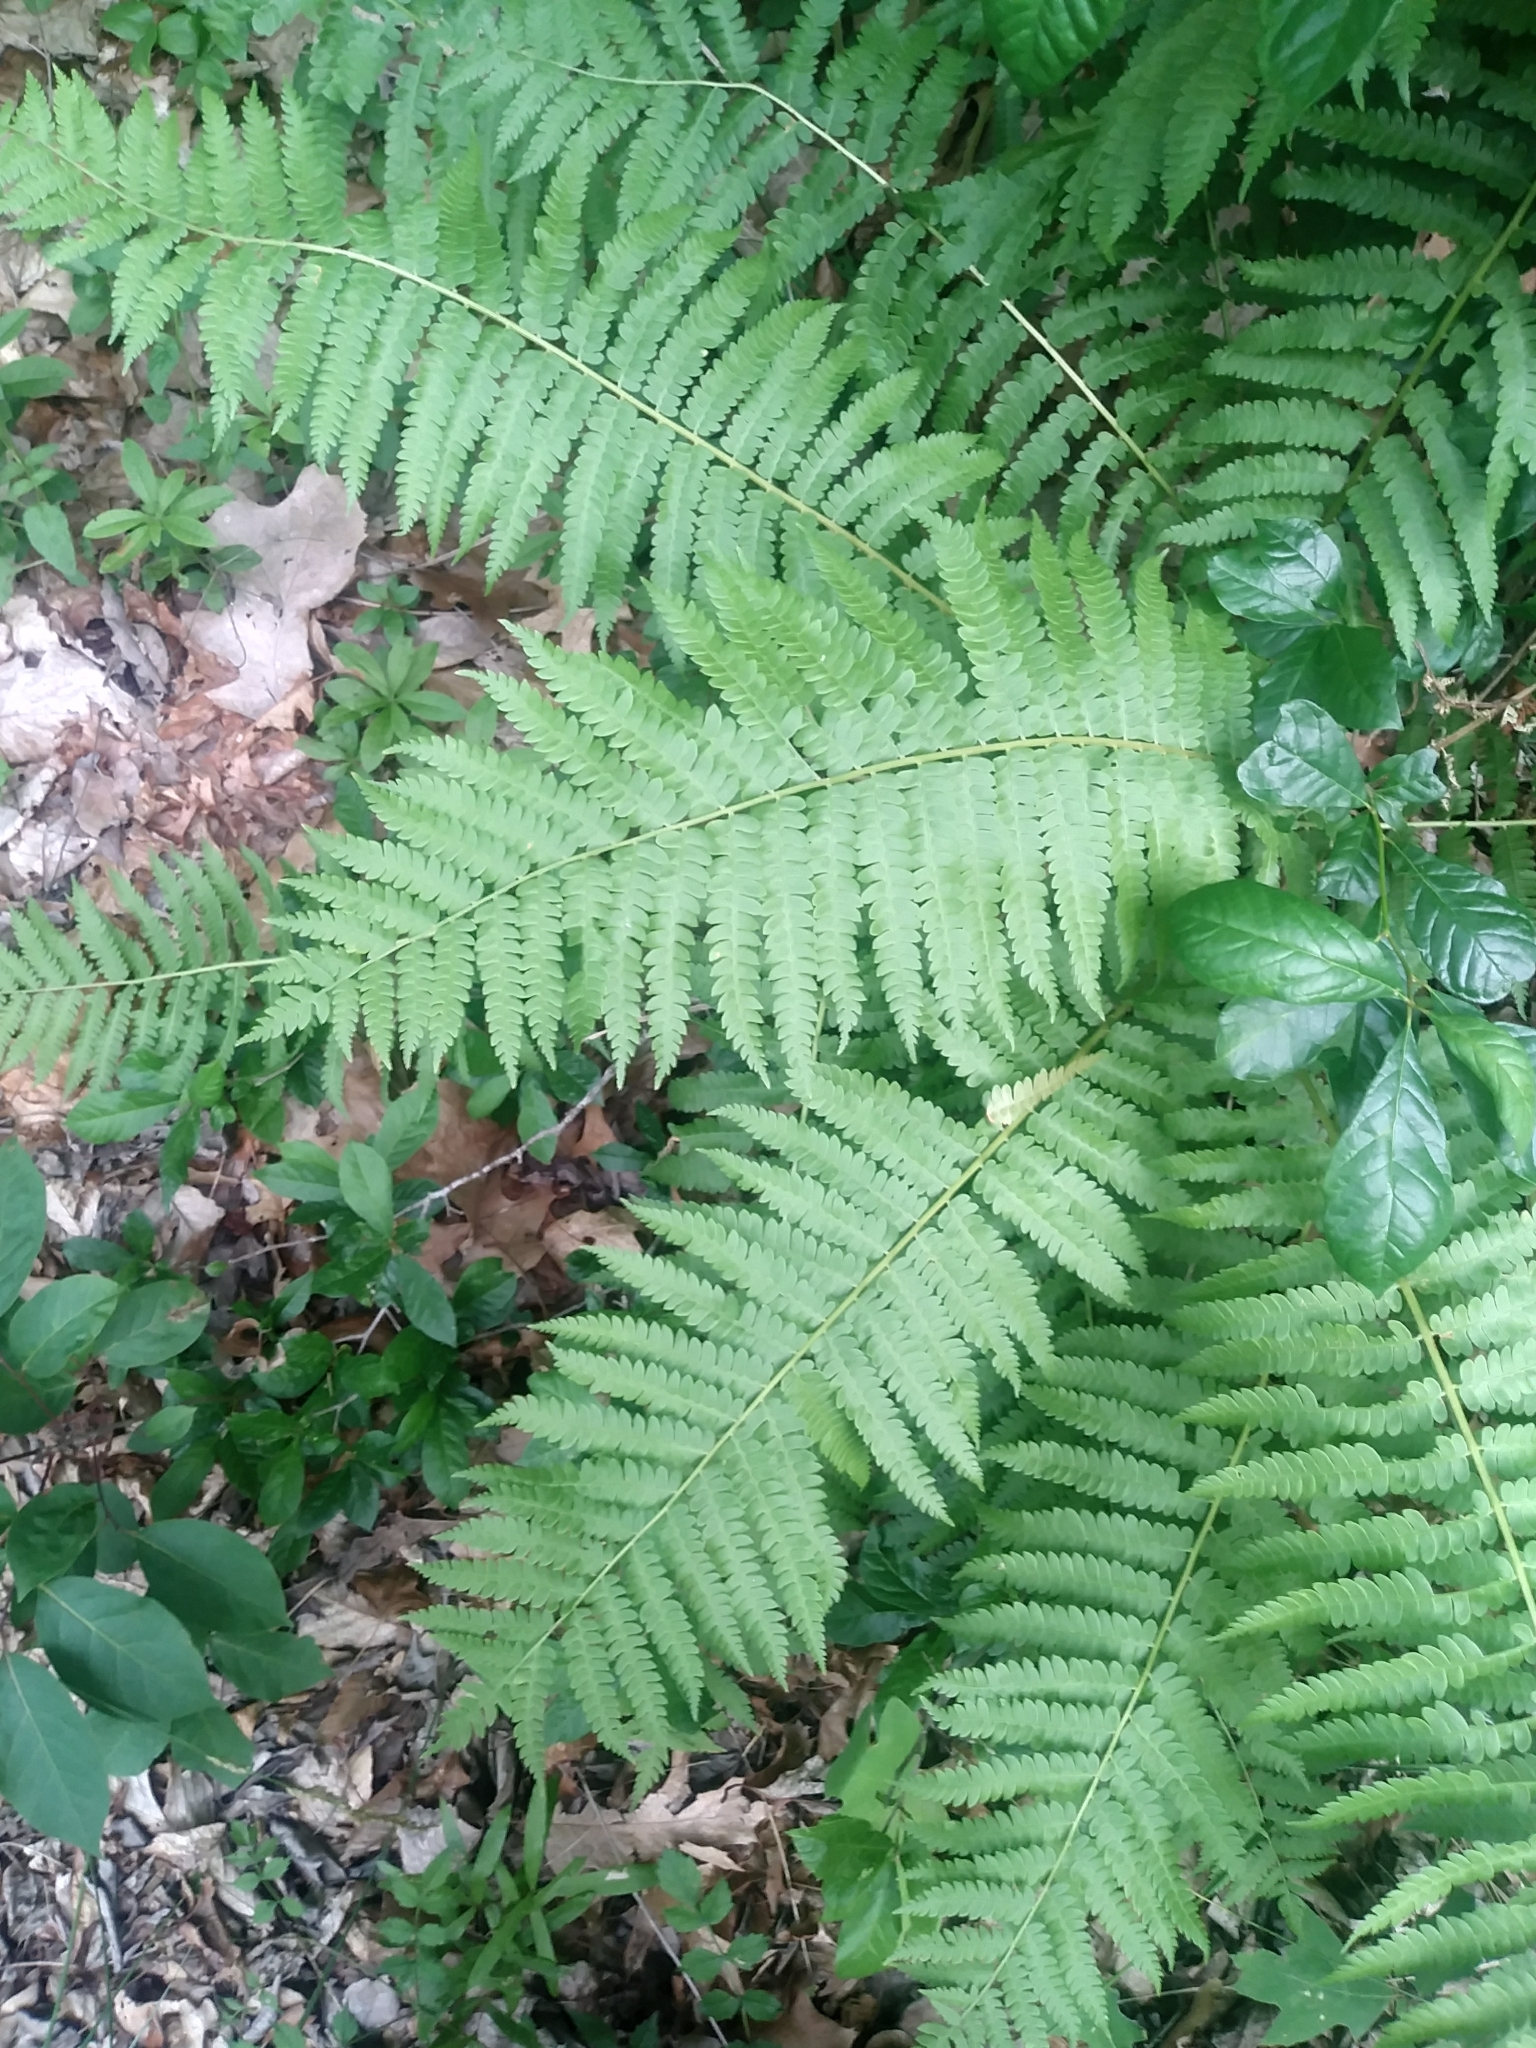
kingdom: Plantae
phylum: Tracheophyta
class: Polypodiopsida
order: Osmundales
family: Osmundaceae
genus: Osmundastrum
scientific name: Osmundastrum cinnamomeum
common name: Cinnamon fern
